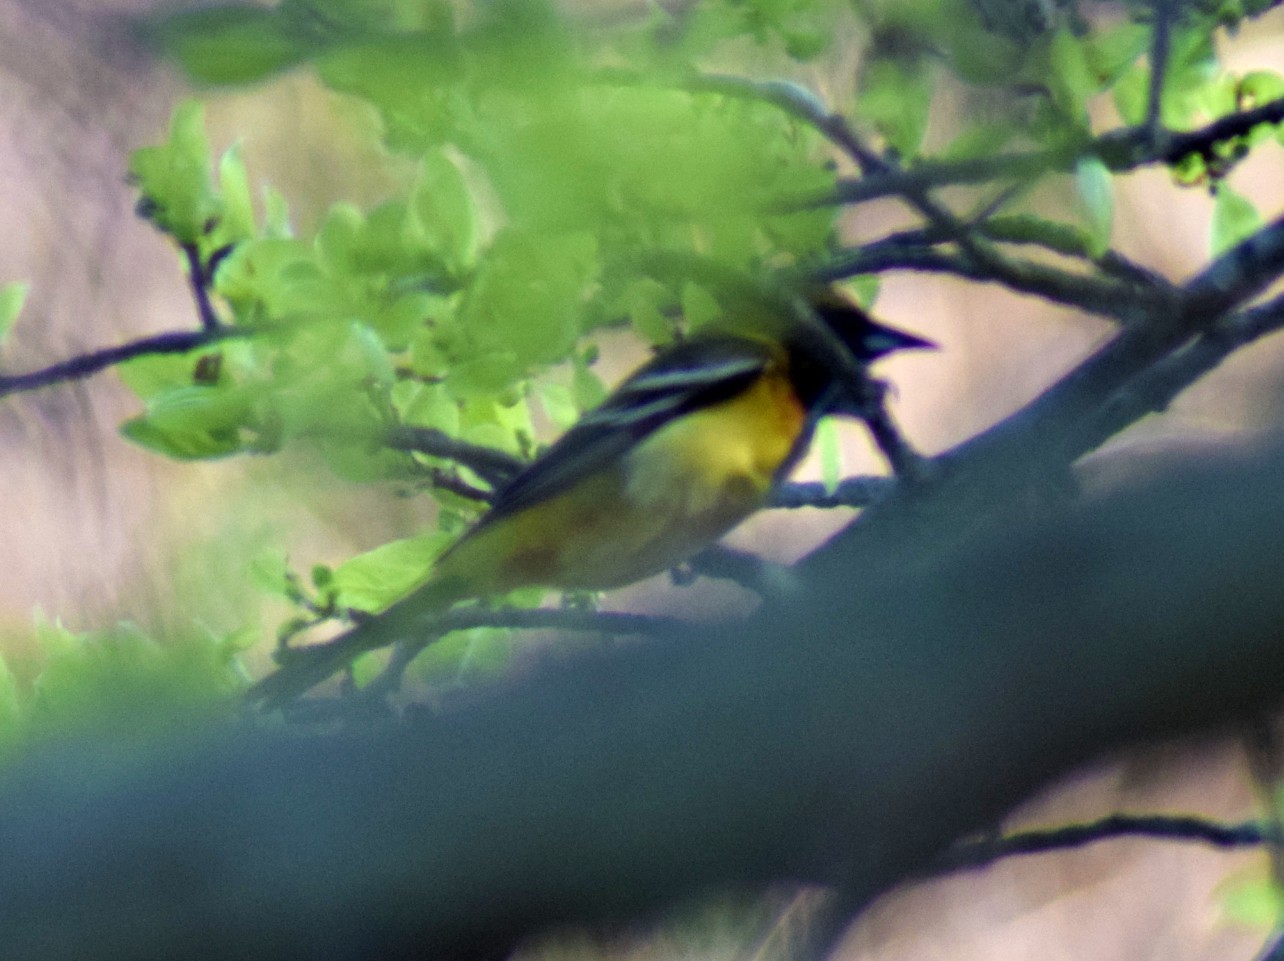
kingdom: Animalia
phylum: Chordata
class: Aves
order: Passeriformes
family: Icteridae
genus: Icterus
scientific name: Icterus galbula
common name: Baltimore oriole
